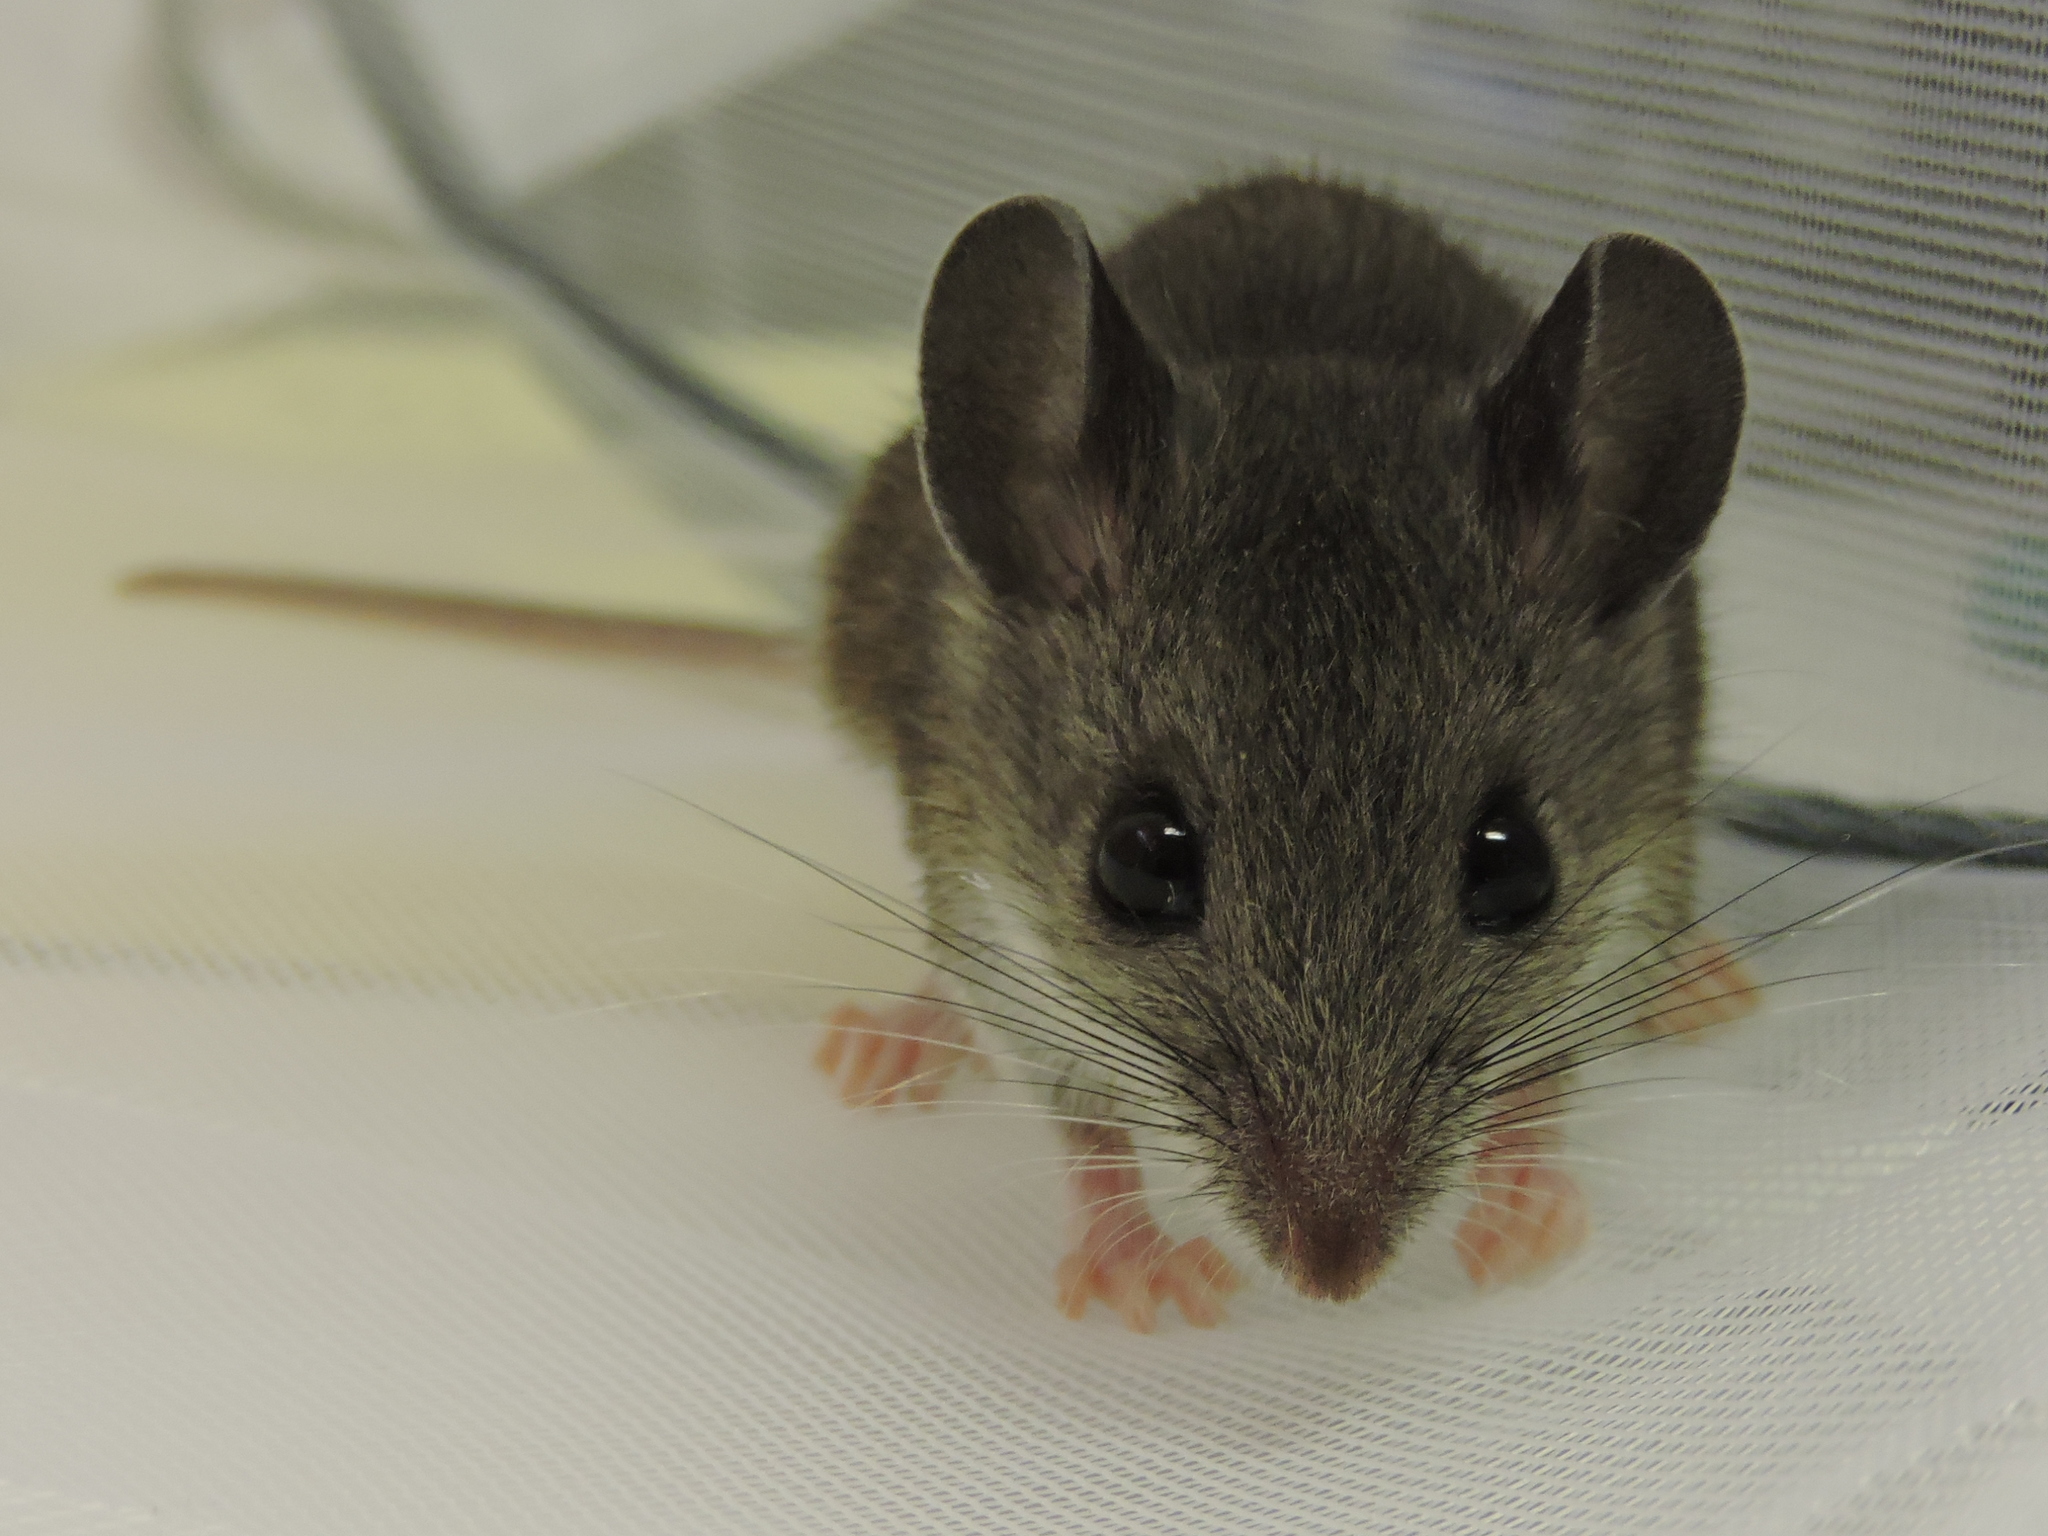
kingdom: Animalia
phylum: Chordata
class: Mammalia
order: Rodentia
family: Cricetidae
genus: Peromyscus
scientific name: Peromyscus leucopus
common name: White-footed deermouse
